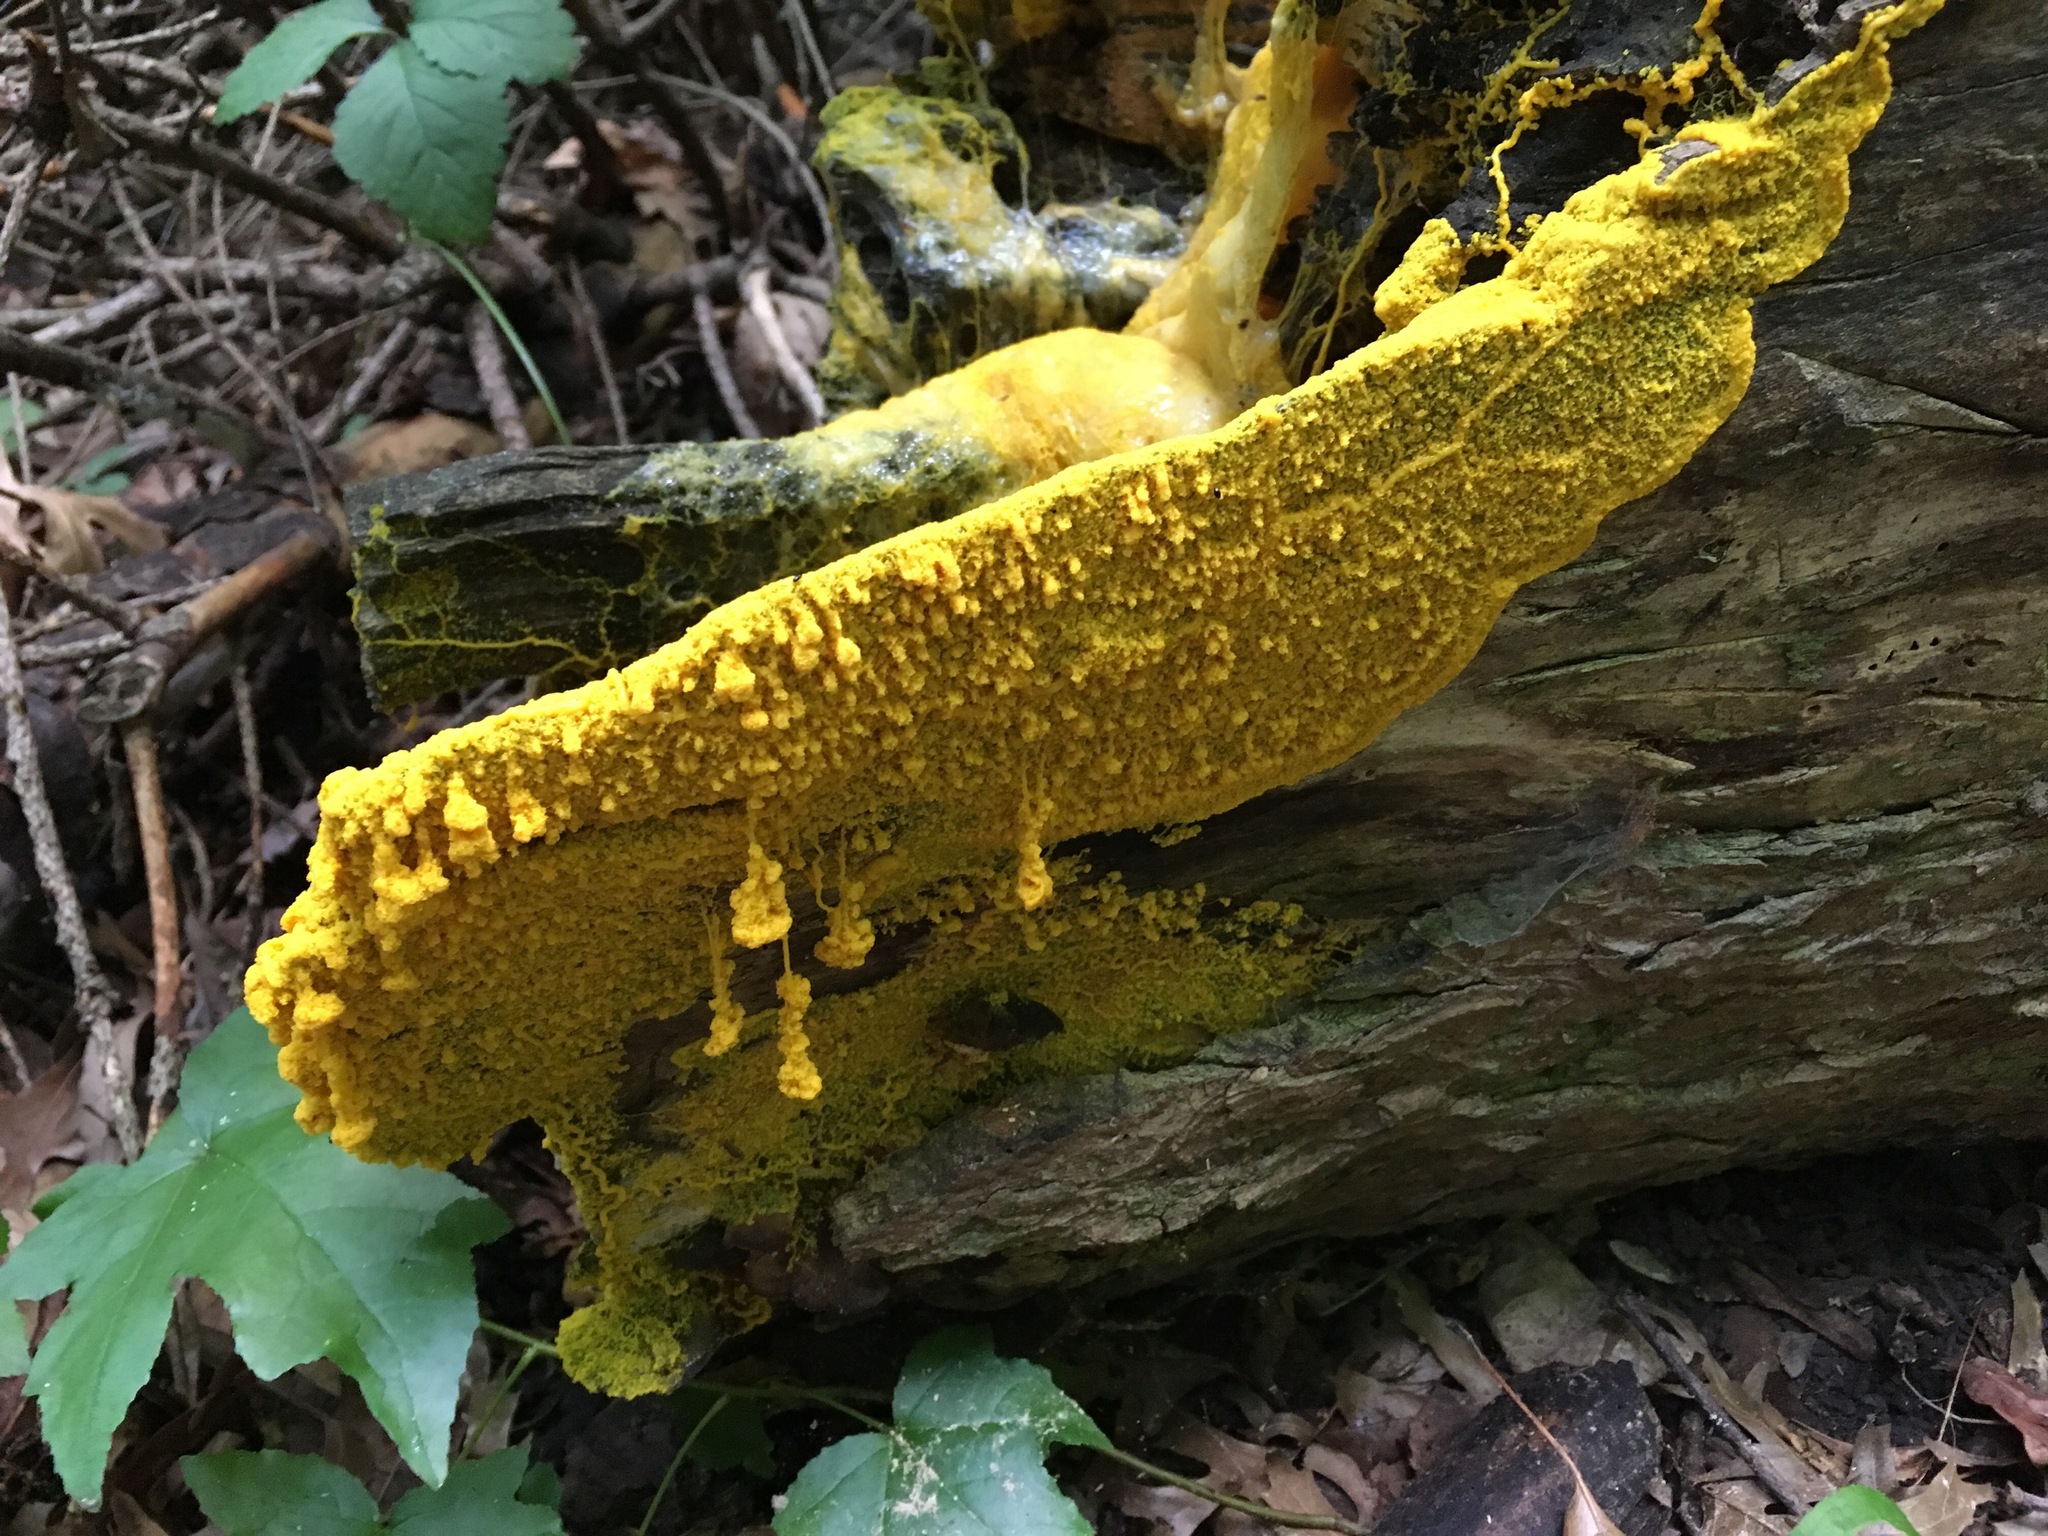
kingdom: Protozoa
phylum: Mycetozoa
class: Myxomycetes
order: Trichiales
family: Trichiaceae
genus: Trichia
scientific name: Trichia varia
